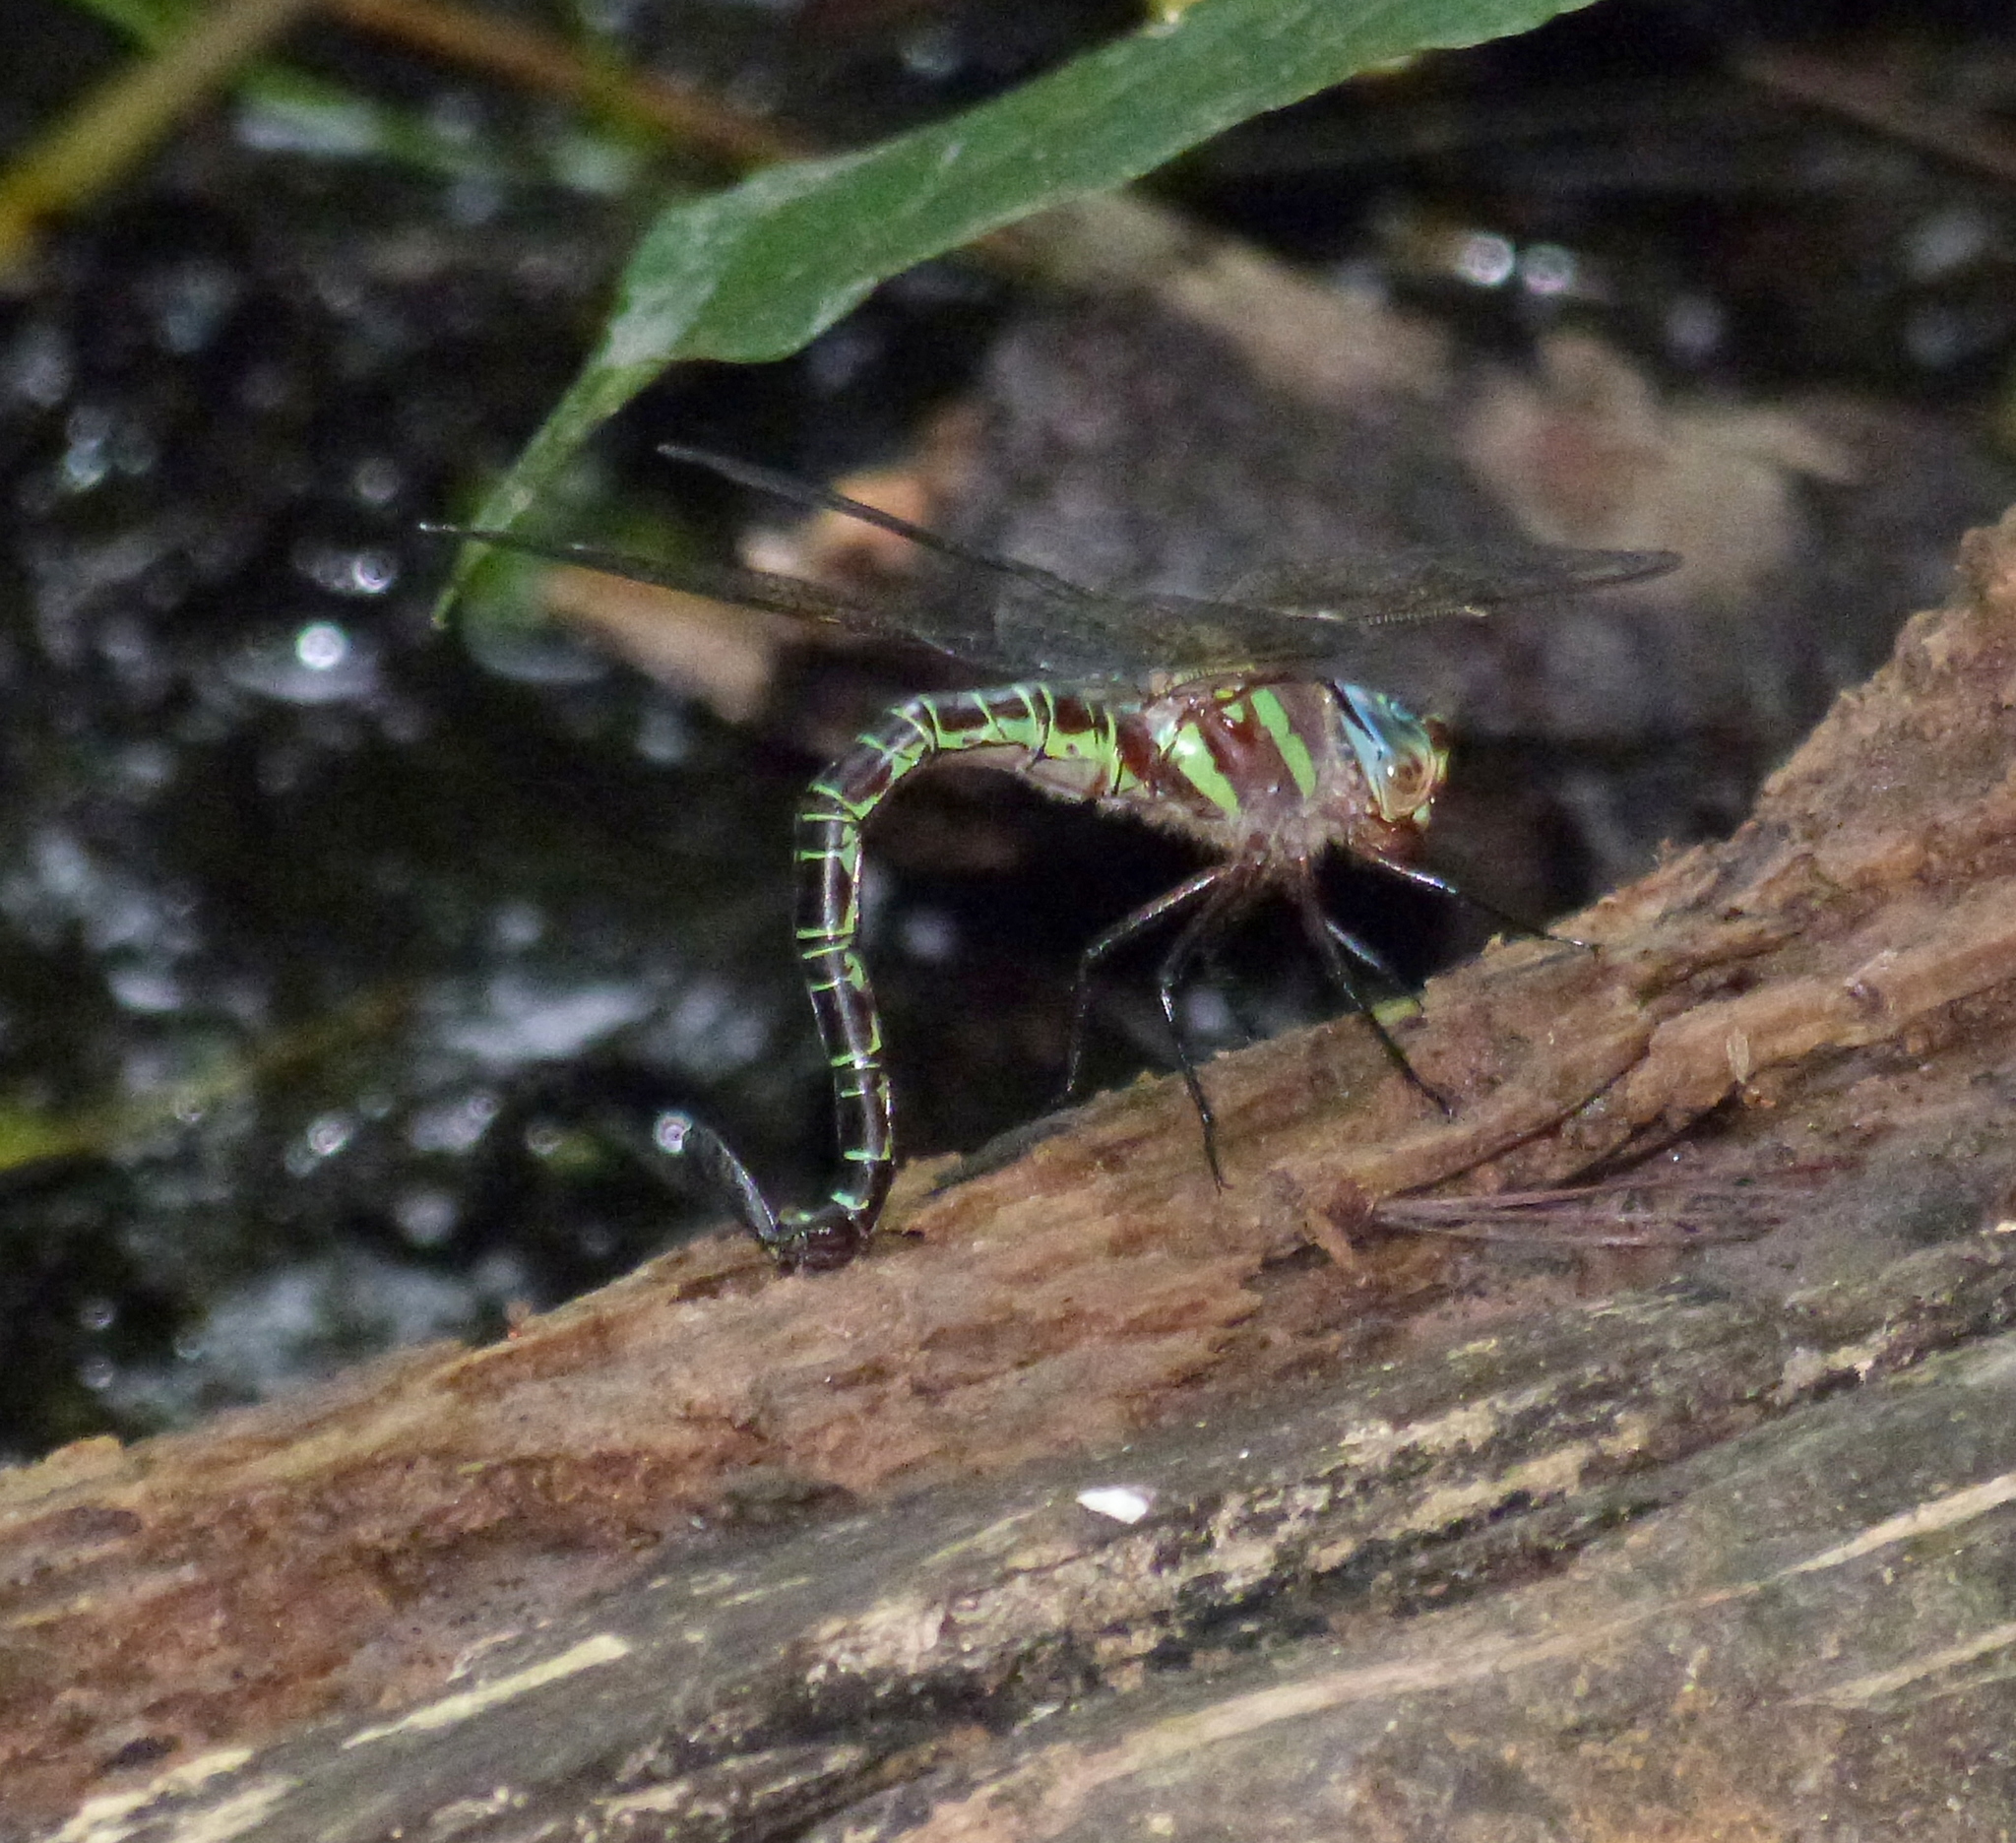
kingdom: Animalia
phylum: Arthropoda
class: Insecta
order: Odonata
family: Aeshnidae
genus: Epiaeschna
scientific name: Epiaeschna heros
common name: Swamp darner
